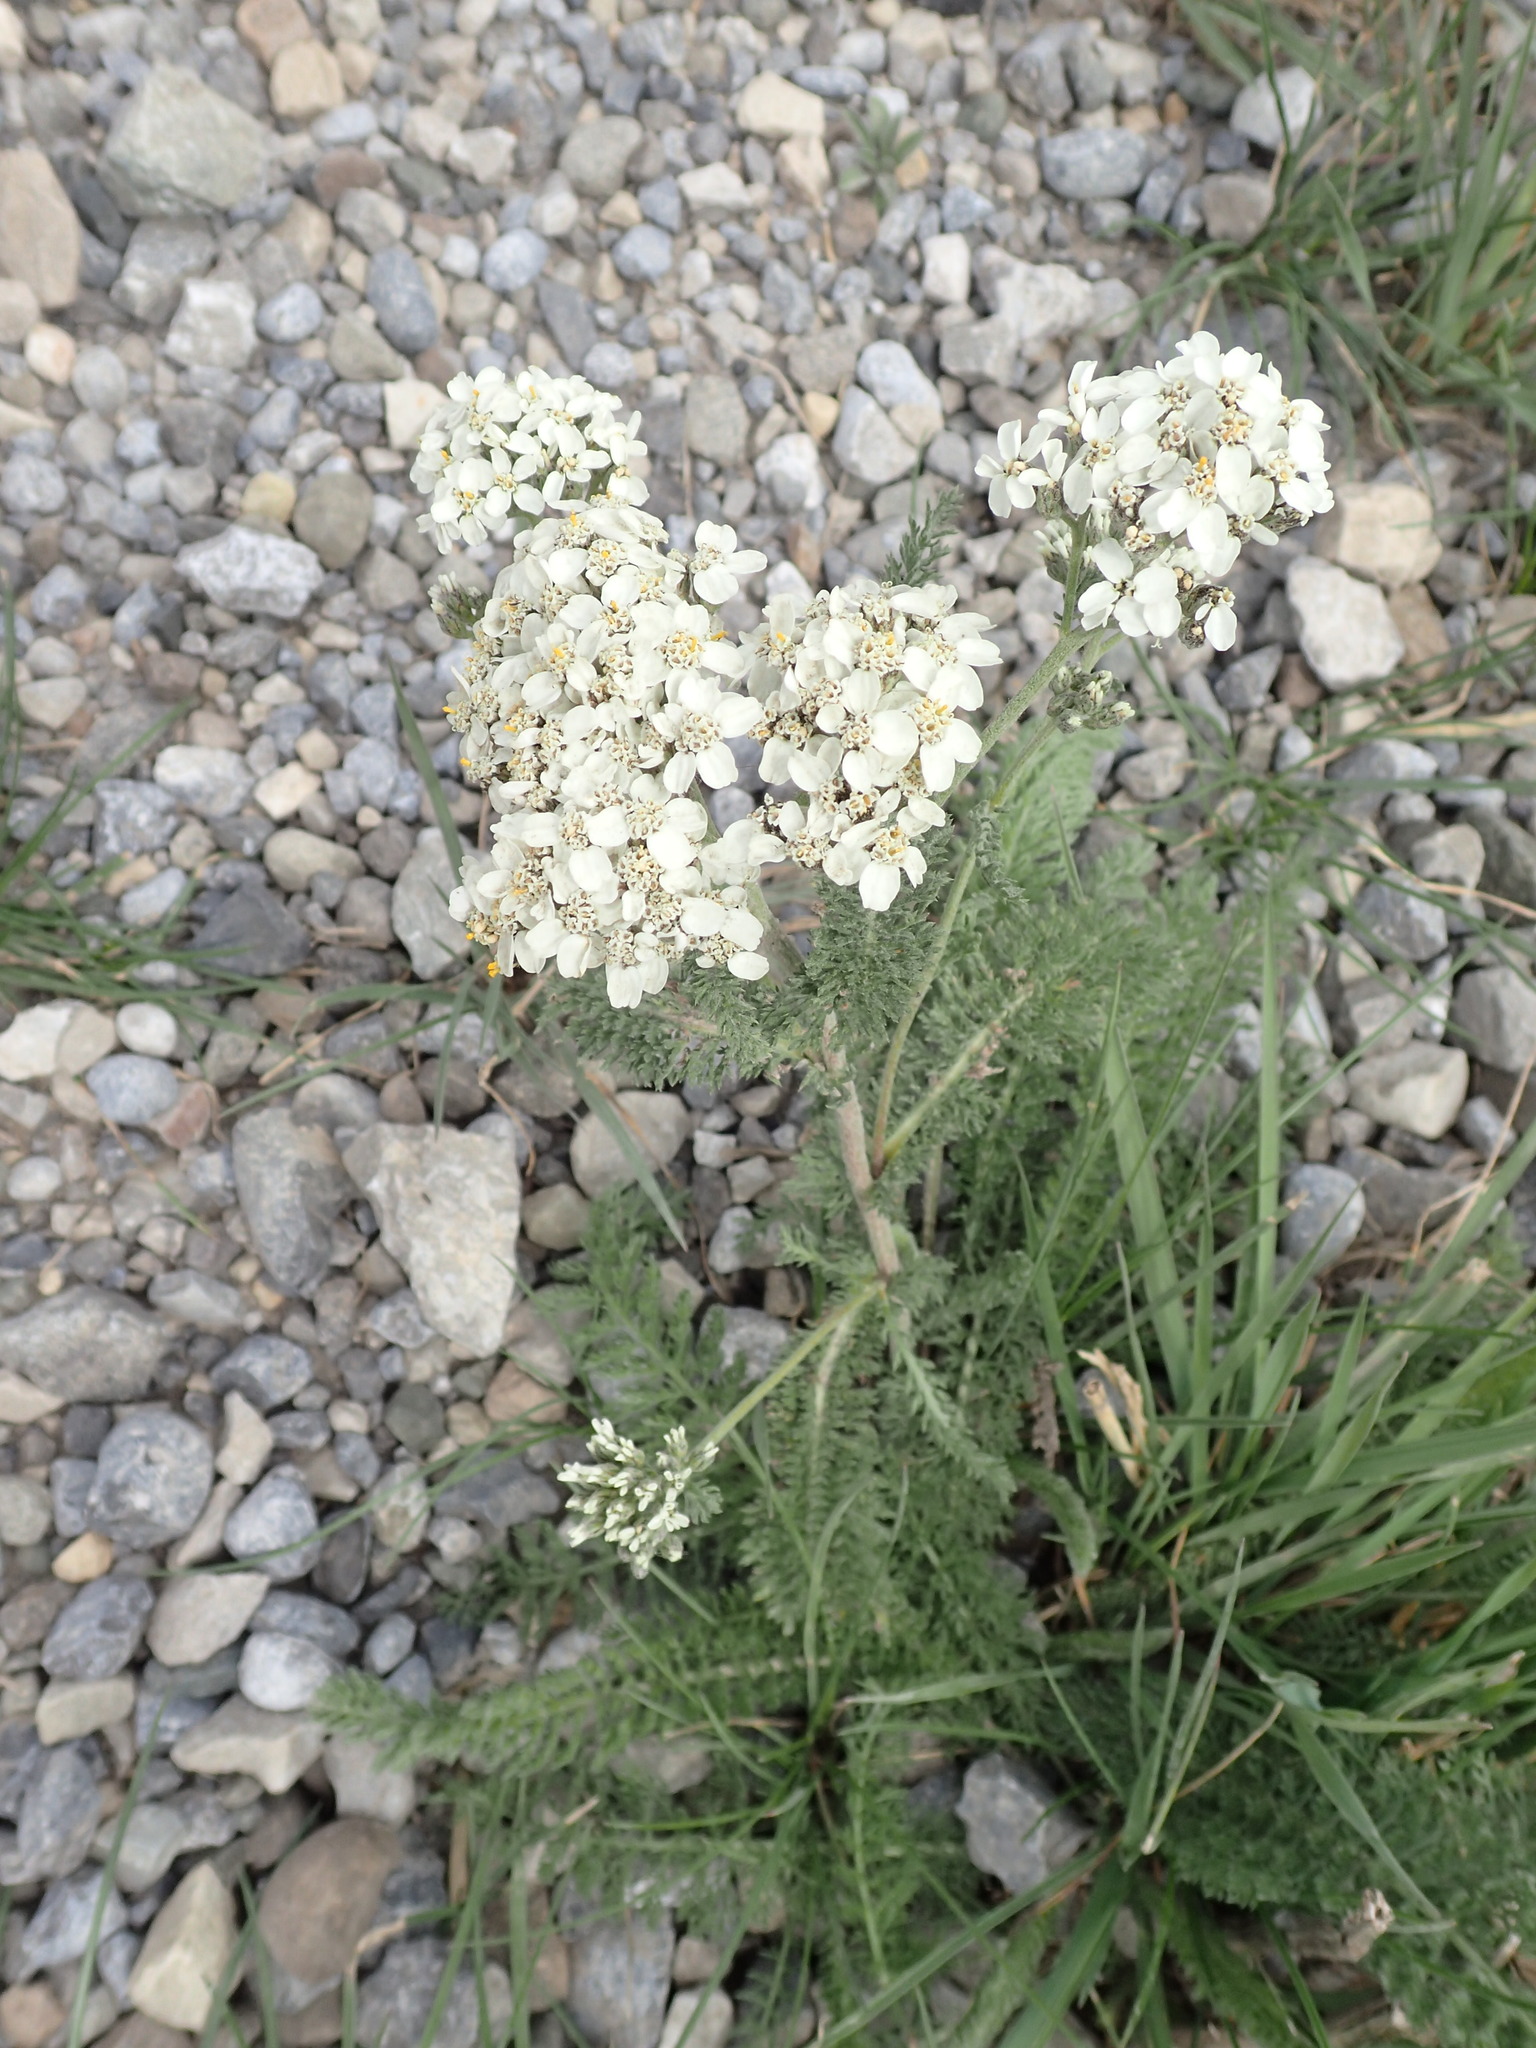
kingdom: Plantae
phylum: Tracheophyta
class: Magnoliopsida
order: Asterales
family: Asteraceae
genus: Achillea
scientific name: Achillea millefolium
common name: Yarrow
